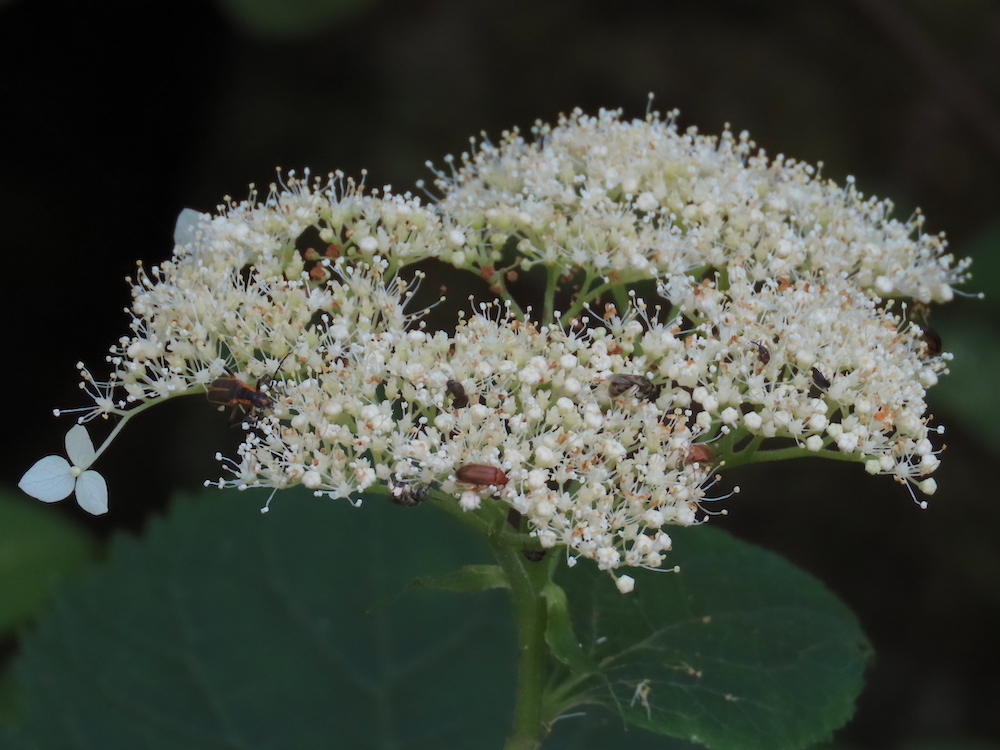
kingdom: Plantae
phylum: Tracheophyta
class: Magnoliopsida
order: Cornales
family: Hydrangeaceae
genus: Hydrangea
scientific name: Hydrangea arborescens
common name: Sevenbark
